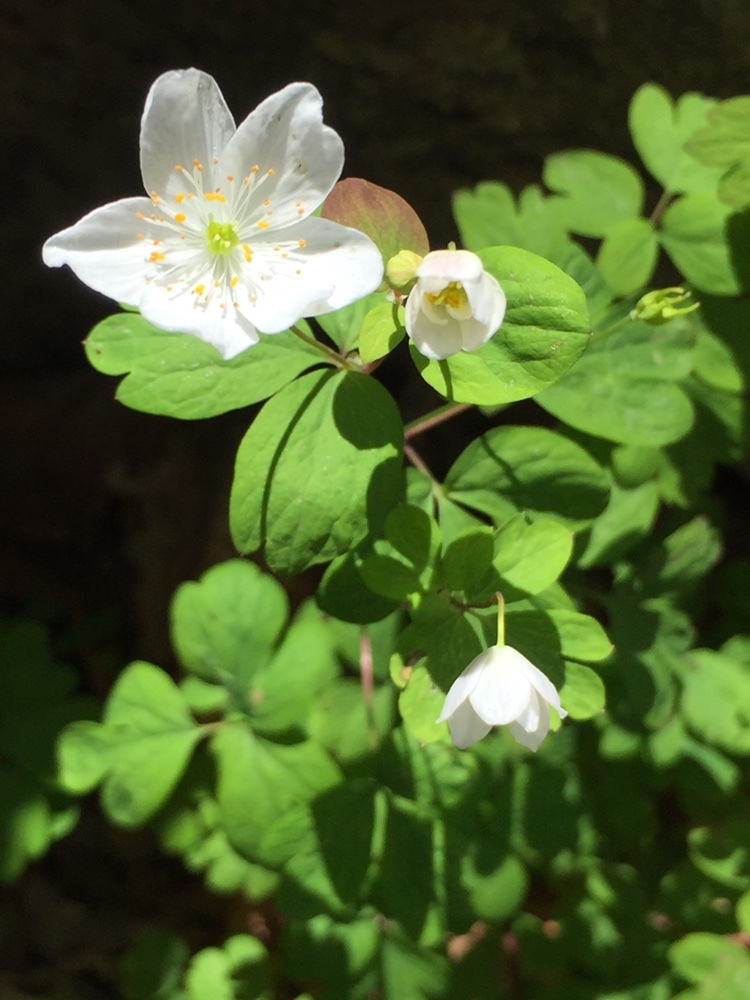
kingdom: Plantae
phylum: Tracheophyta
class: Magnoliopsida
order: Ranunculales
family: Ranunculaceae
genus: Enemion
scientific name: Enemion biternatum
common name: Eastern false rue-anemone
